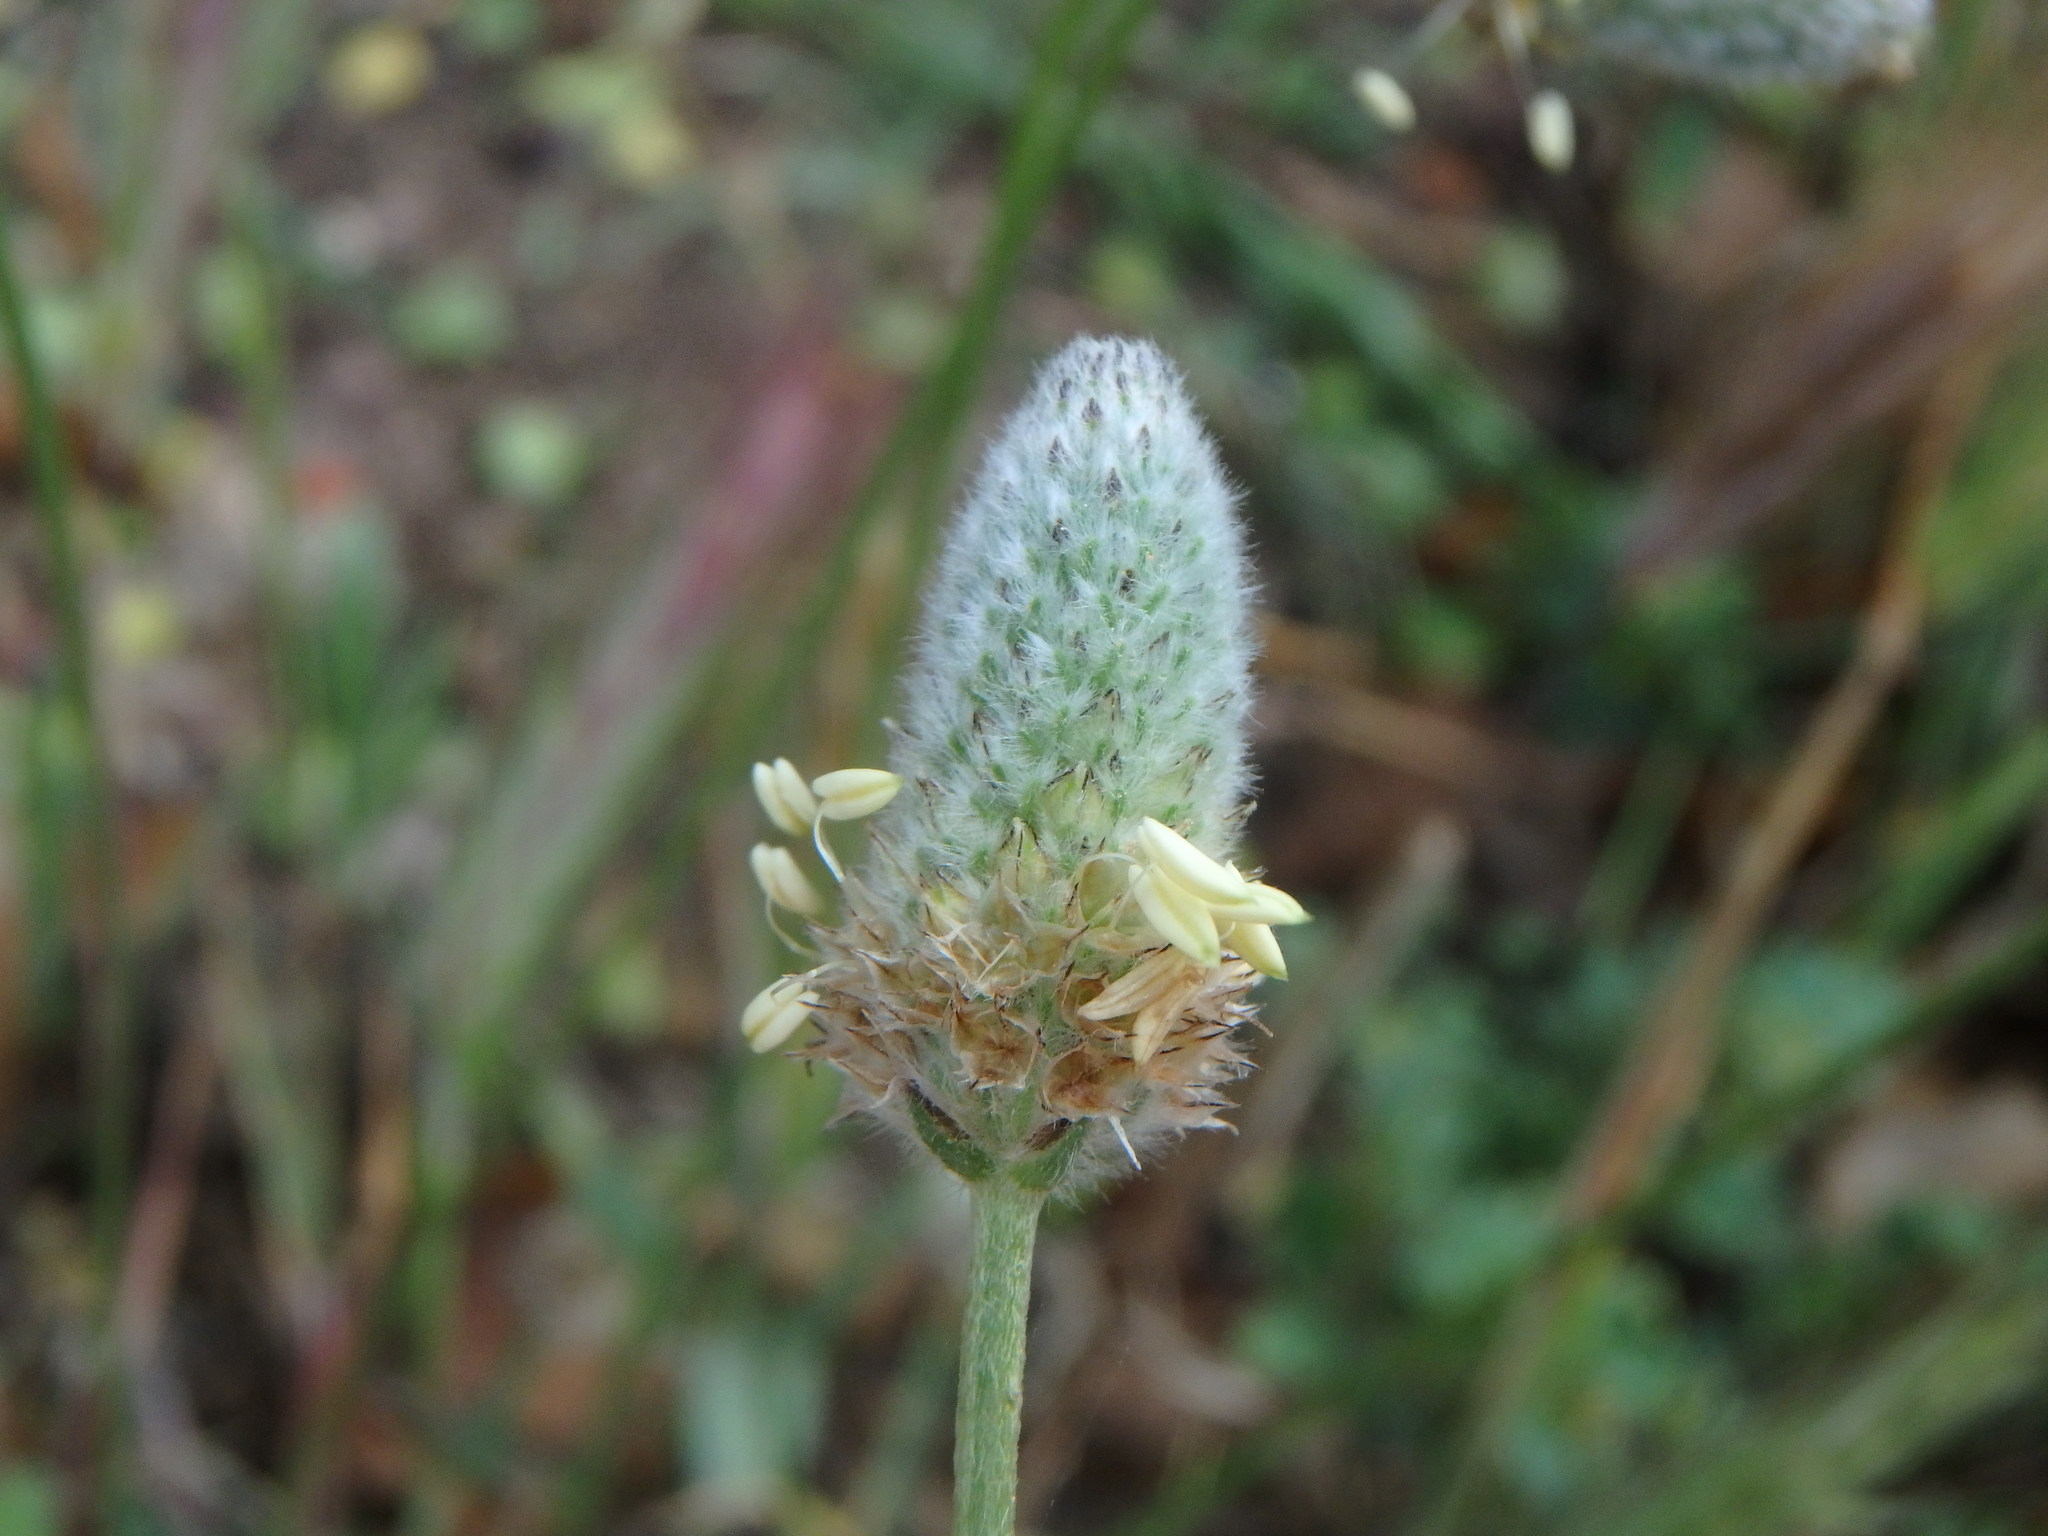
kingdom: Plantae
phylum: Tracheophyta
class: Magnoliopsida
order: Lamiales
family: Plantaginaceae
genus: Plantago
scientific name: Plantago lagopus
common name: Hare-foot plantain
